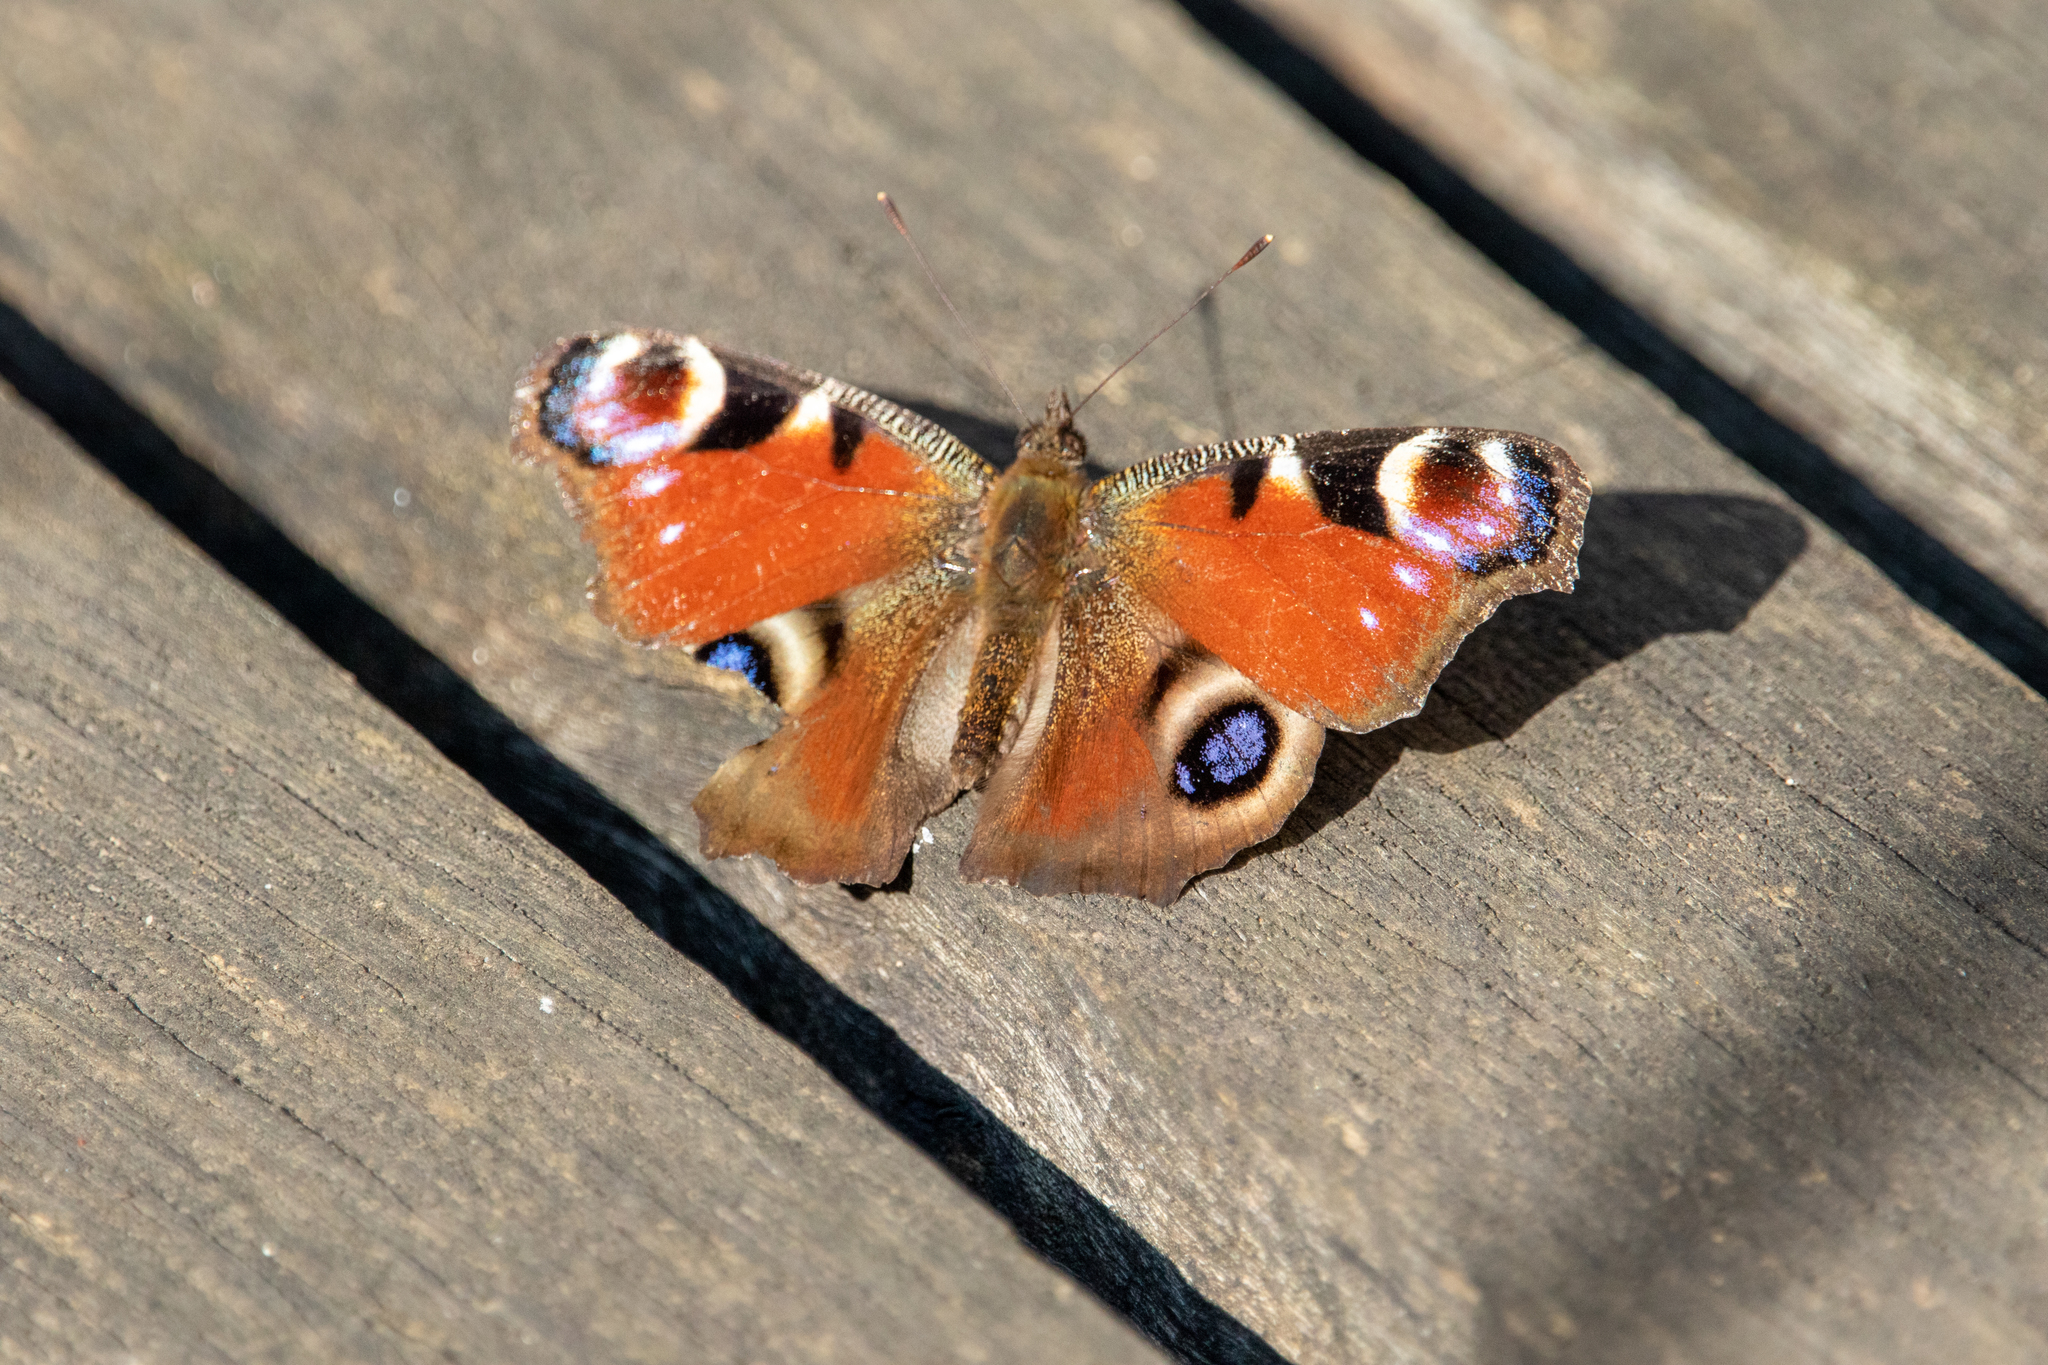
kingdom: Animalia
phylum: Arthropoda
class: Insecta
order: Lepidoptera
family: Nymphalidae
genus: Aglais
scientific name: Aglais io
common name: Peacock
